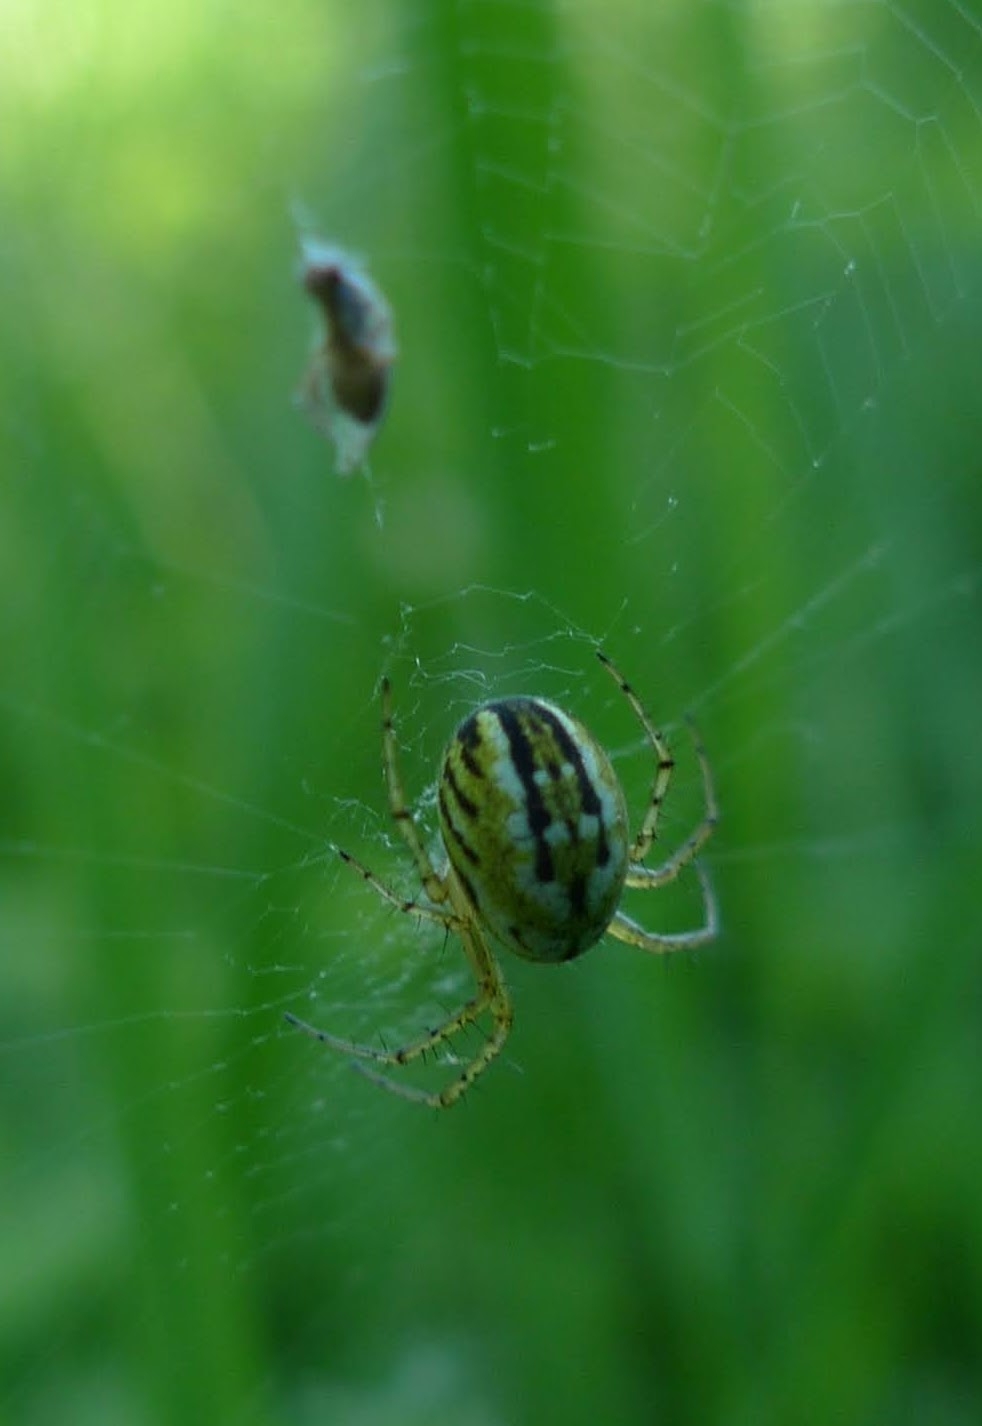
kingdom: Animalia
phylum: Arthropoda
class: Arachnida
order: Araneae
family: Araneidae
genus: Mangora
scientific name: Mangora acalypha
